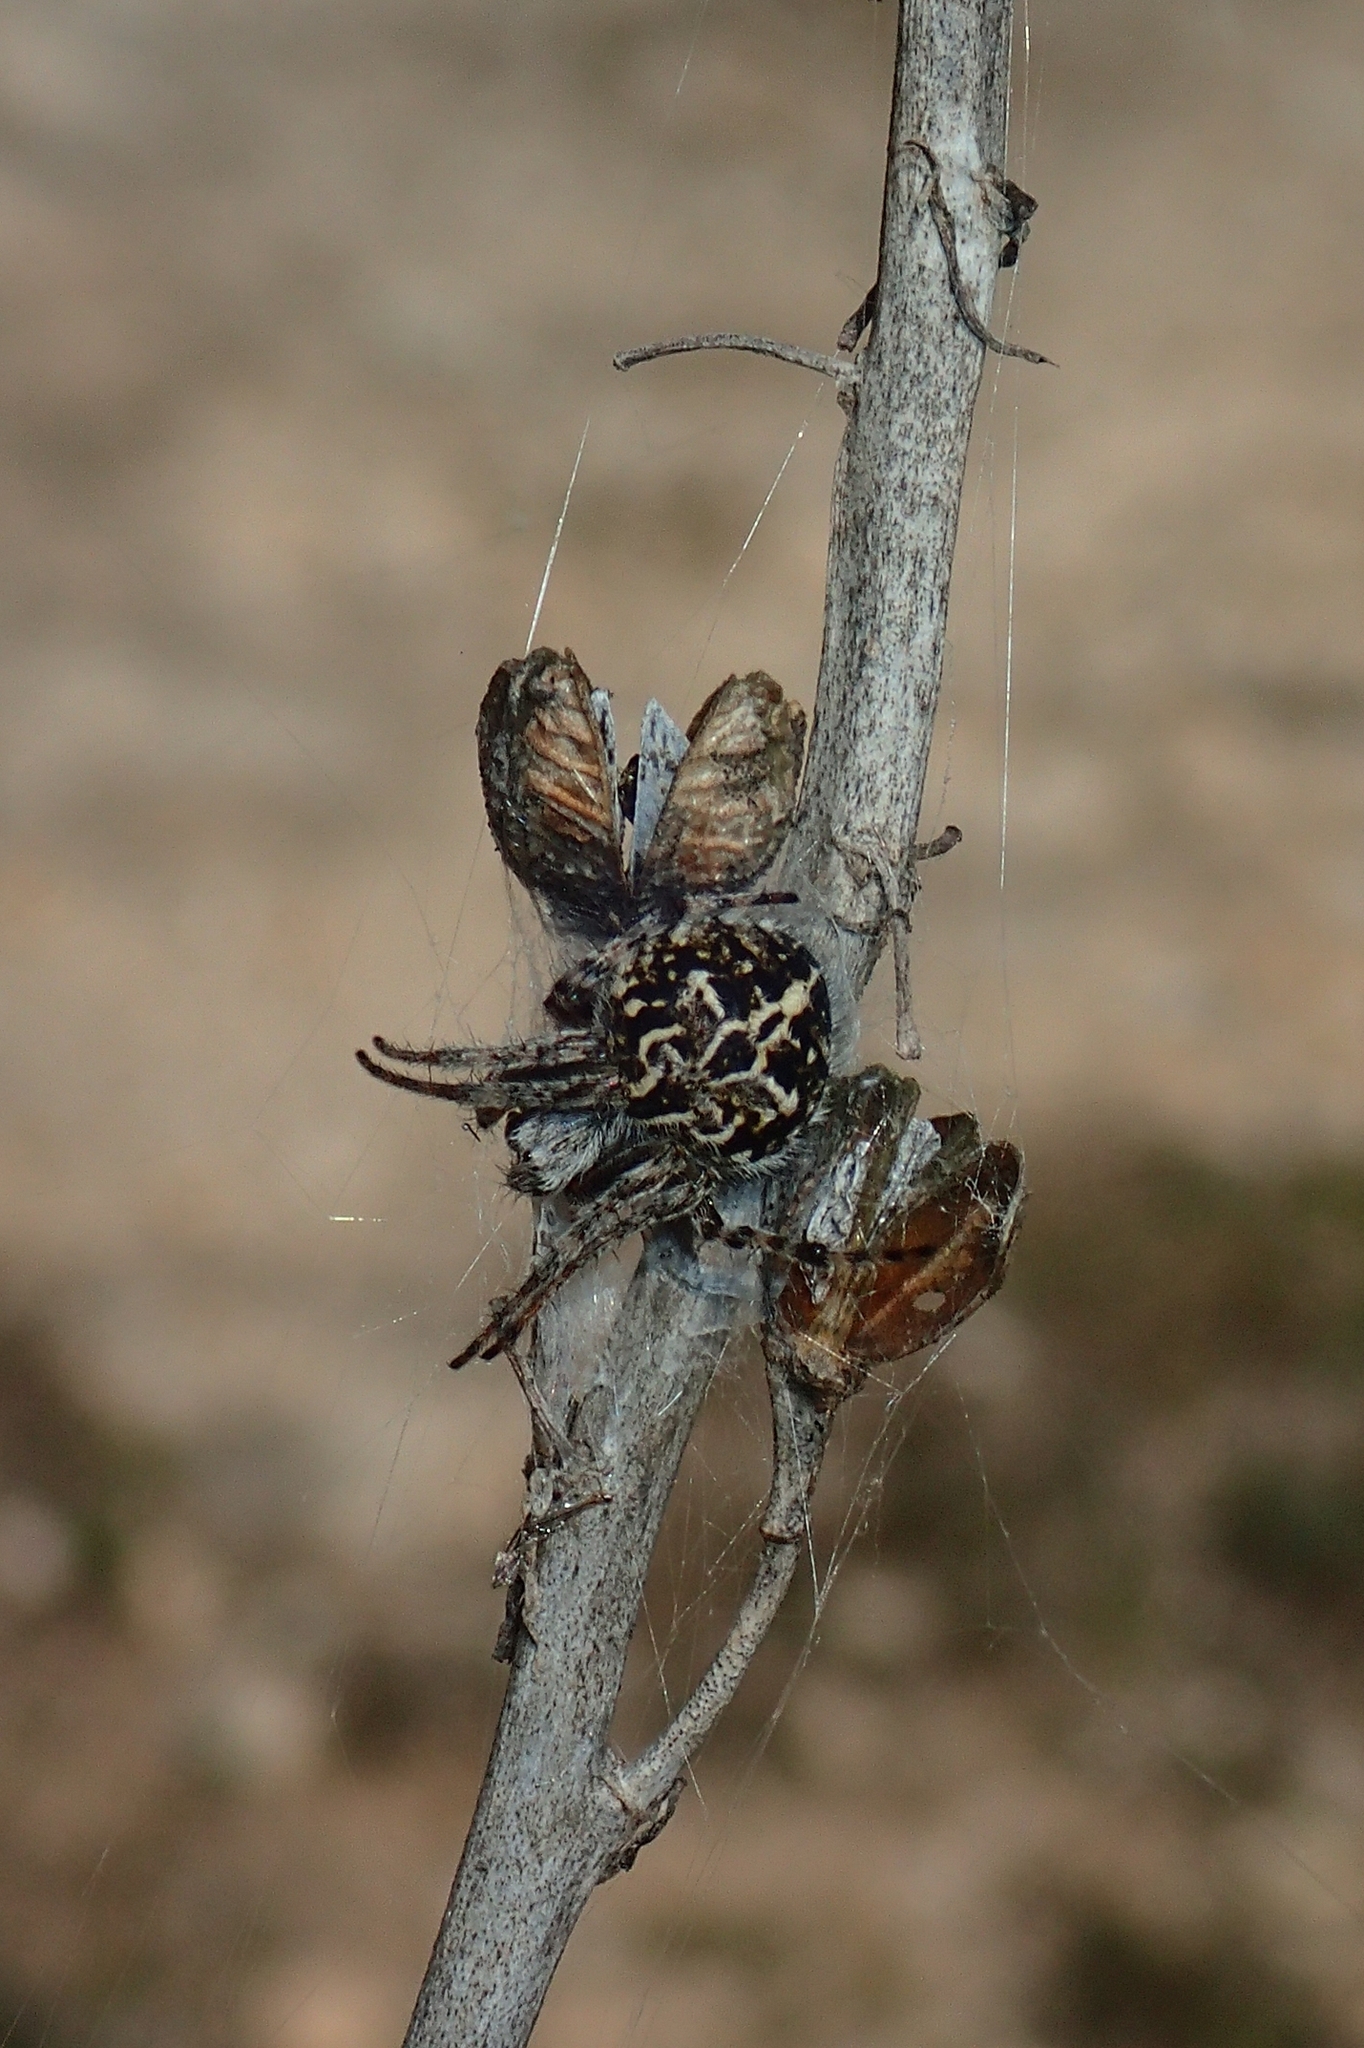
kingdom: Animalia
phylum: Arthropoda
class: Arachnida
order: Araneae
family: Araneidae
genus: Agalenatea
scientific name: Agalenatea redii
